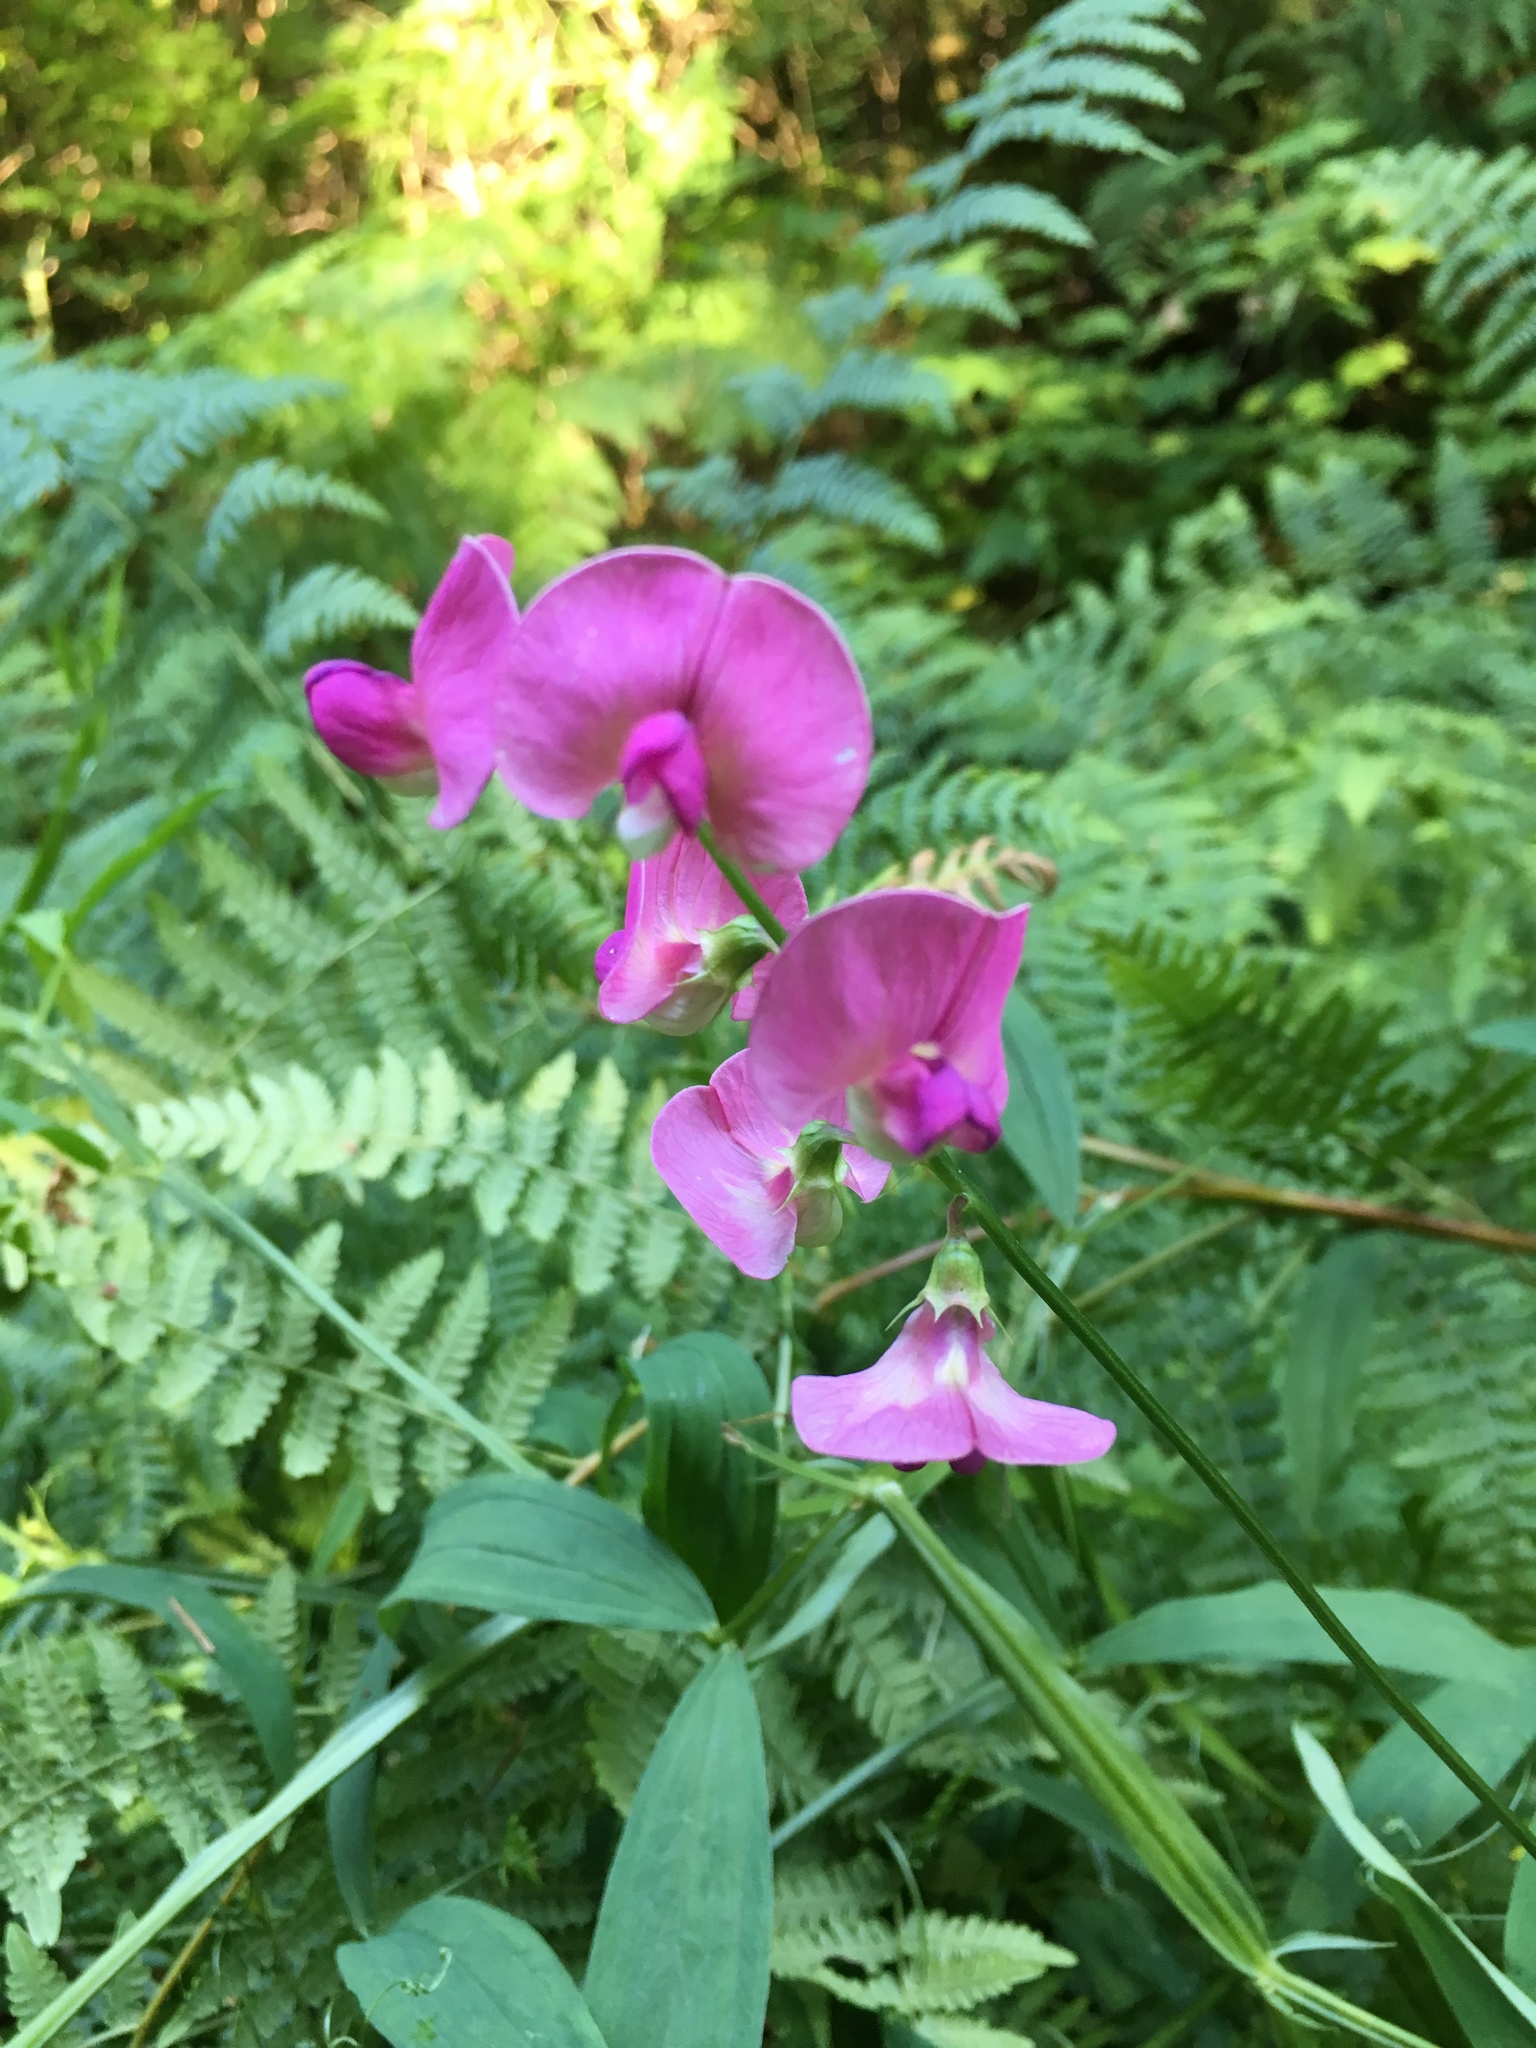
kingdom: Plantae
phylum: Tracheophyta
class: Magnoliopsida
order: Fabales
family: Fabaceae
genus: Lathyrus
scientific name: Lathyrus sylvestris
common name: Flat pea
